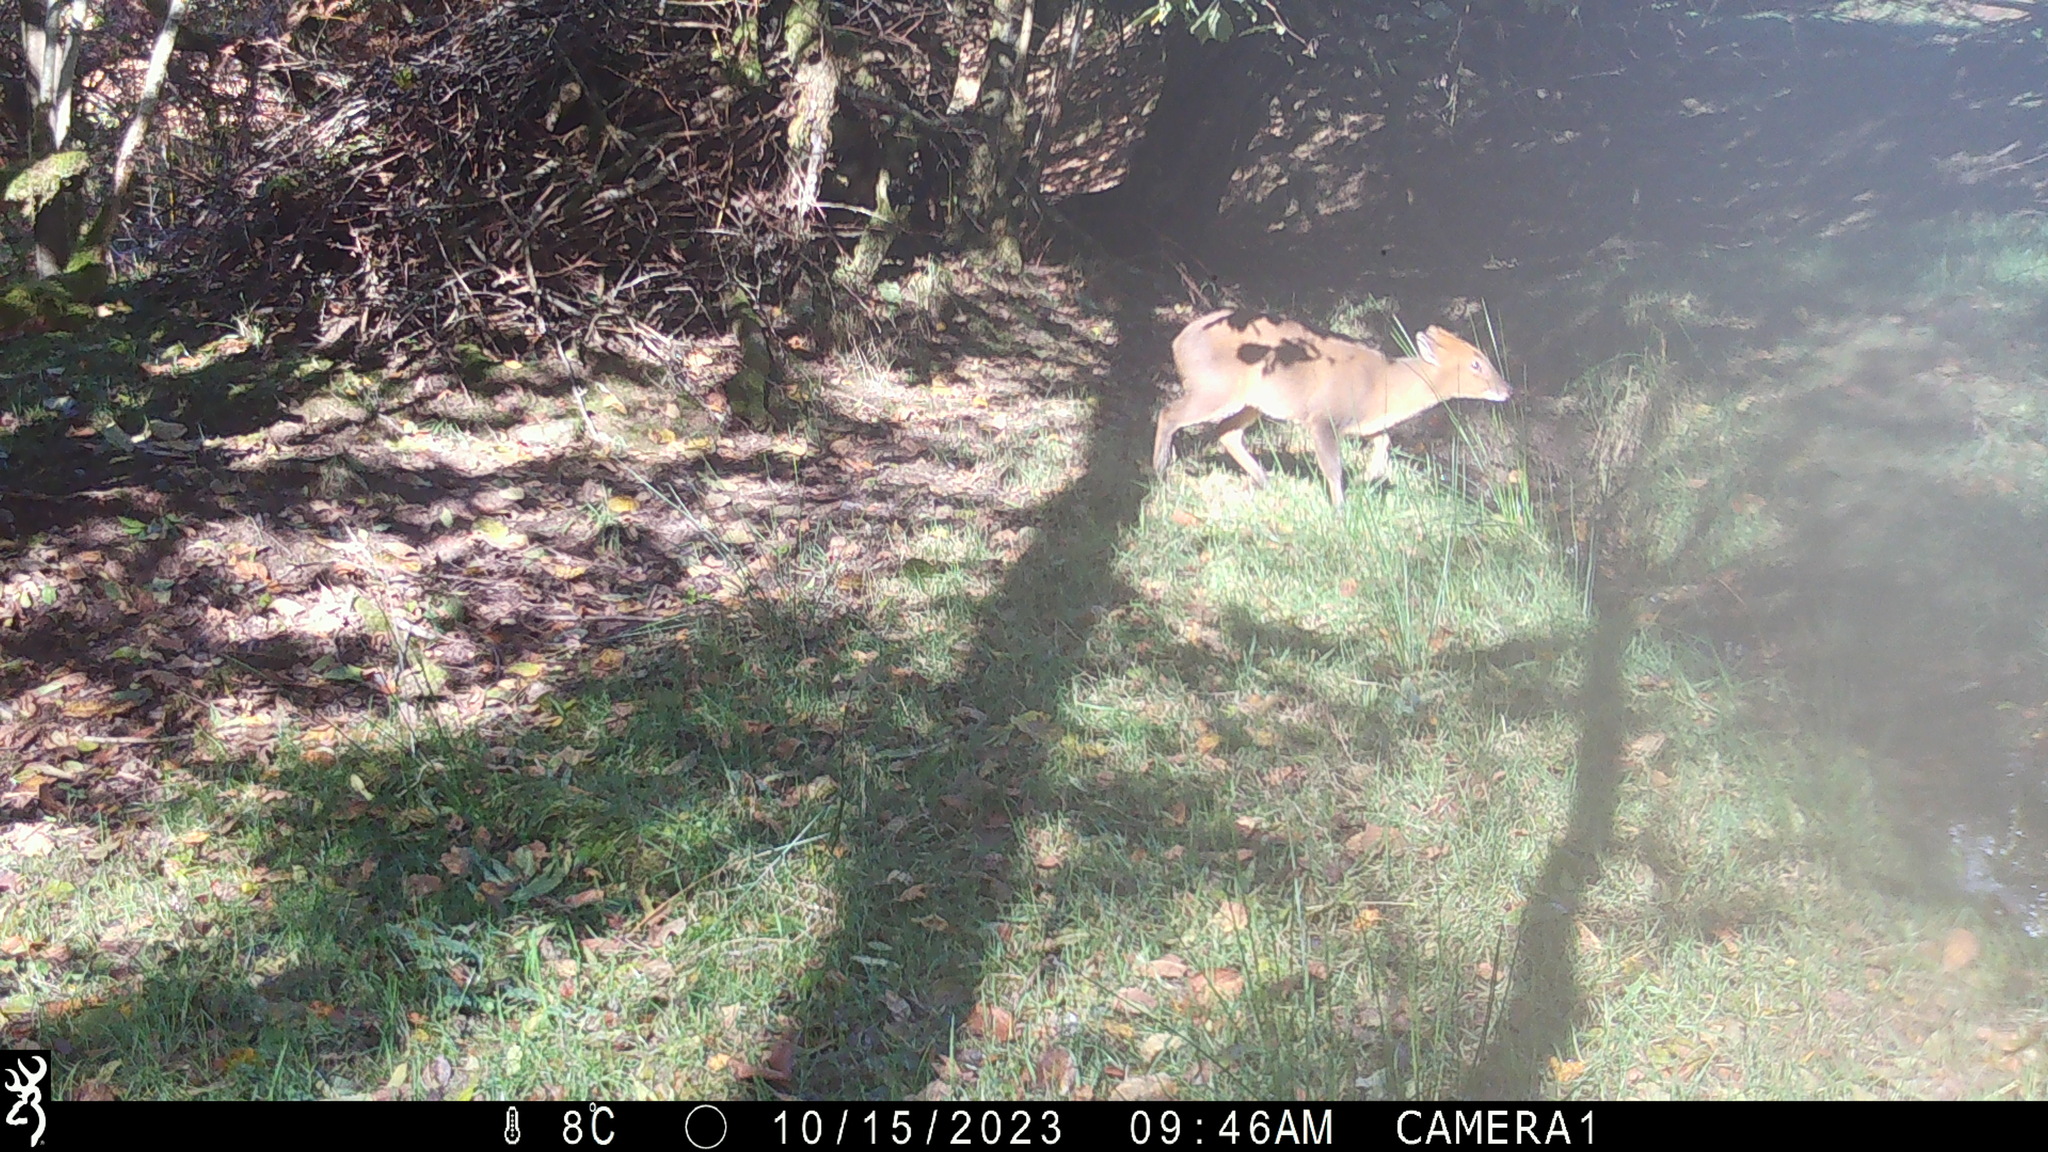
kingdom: Animalia
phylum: Chordata
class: Mammalia
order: Artiodactyla
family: Cervidae
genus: Muntiacus
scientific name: Muntiacus reevesi
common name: Reeves' muntjac
